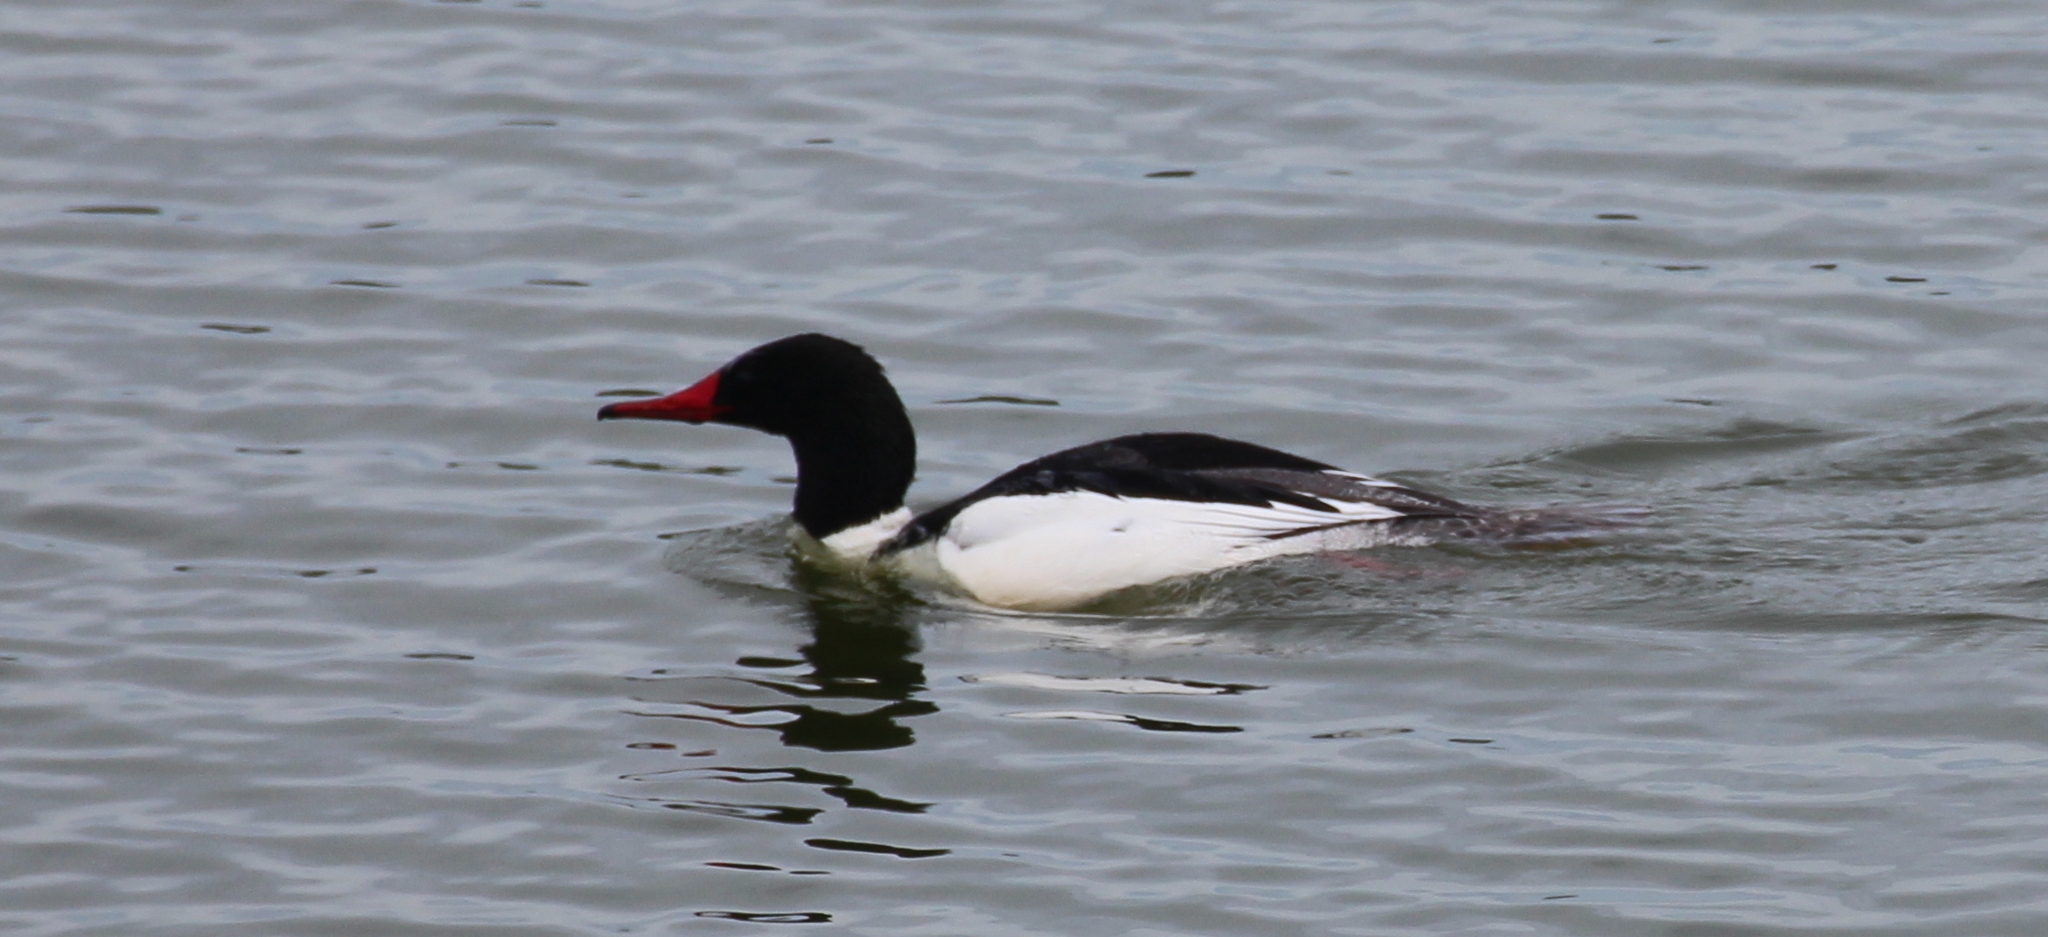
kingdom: Animalia
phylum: Chordata
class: Aves
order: Anseriformes
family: Anatidae
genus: Mergus
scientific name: Mergus merganser
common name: Common merganser
